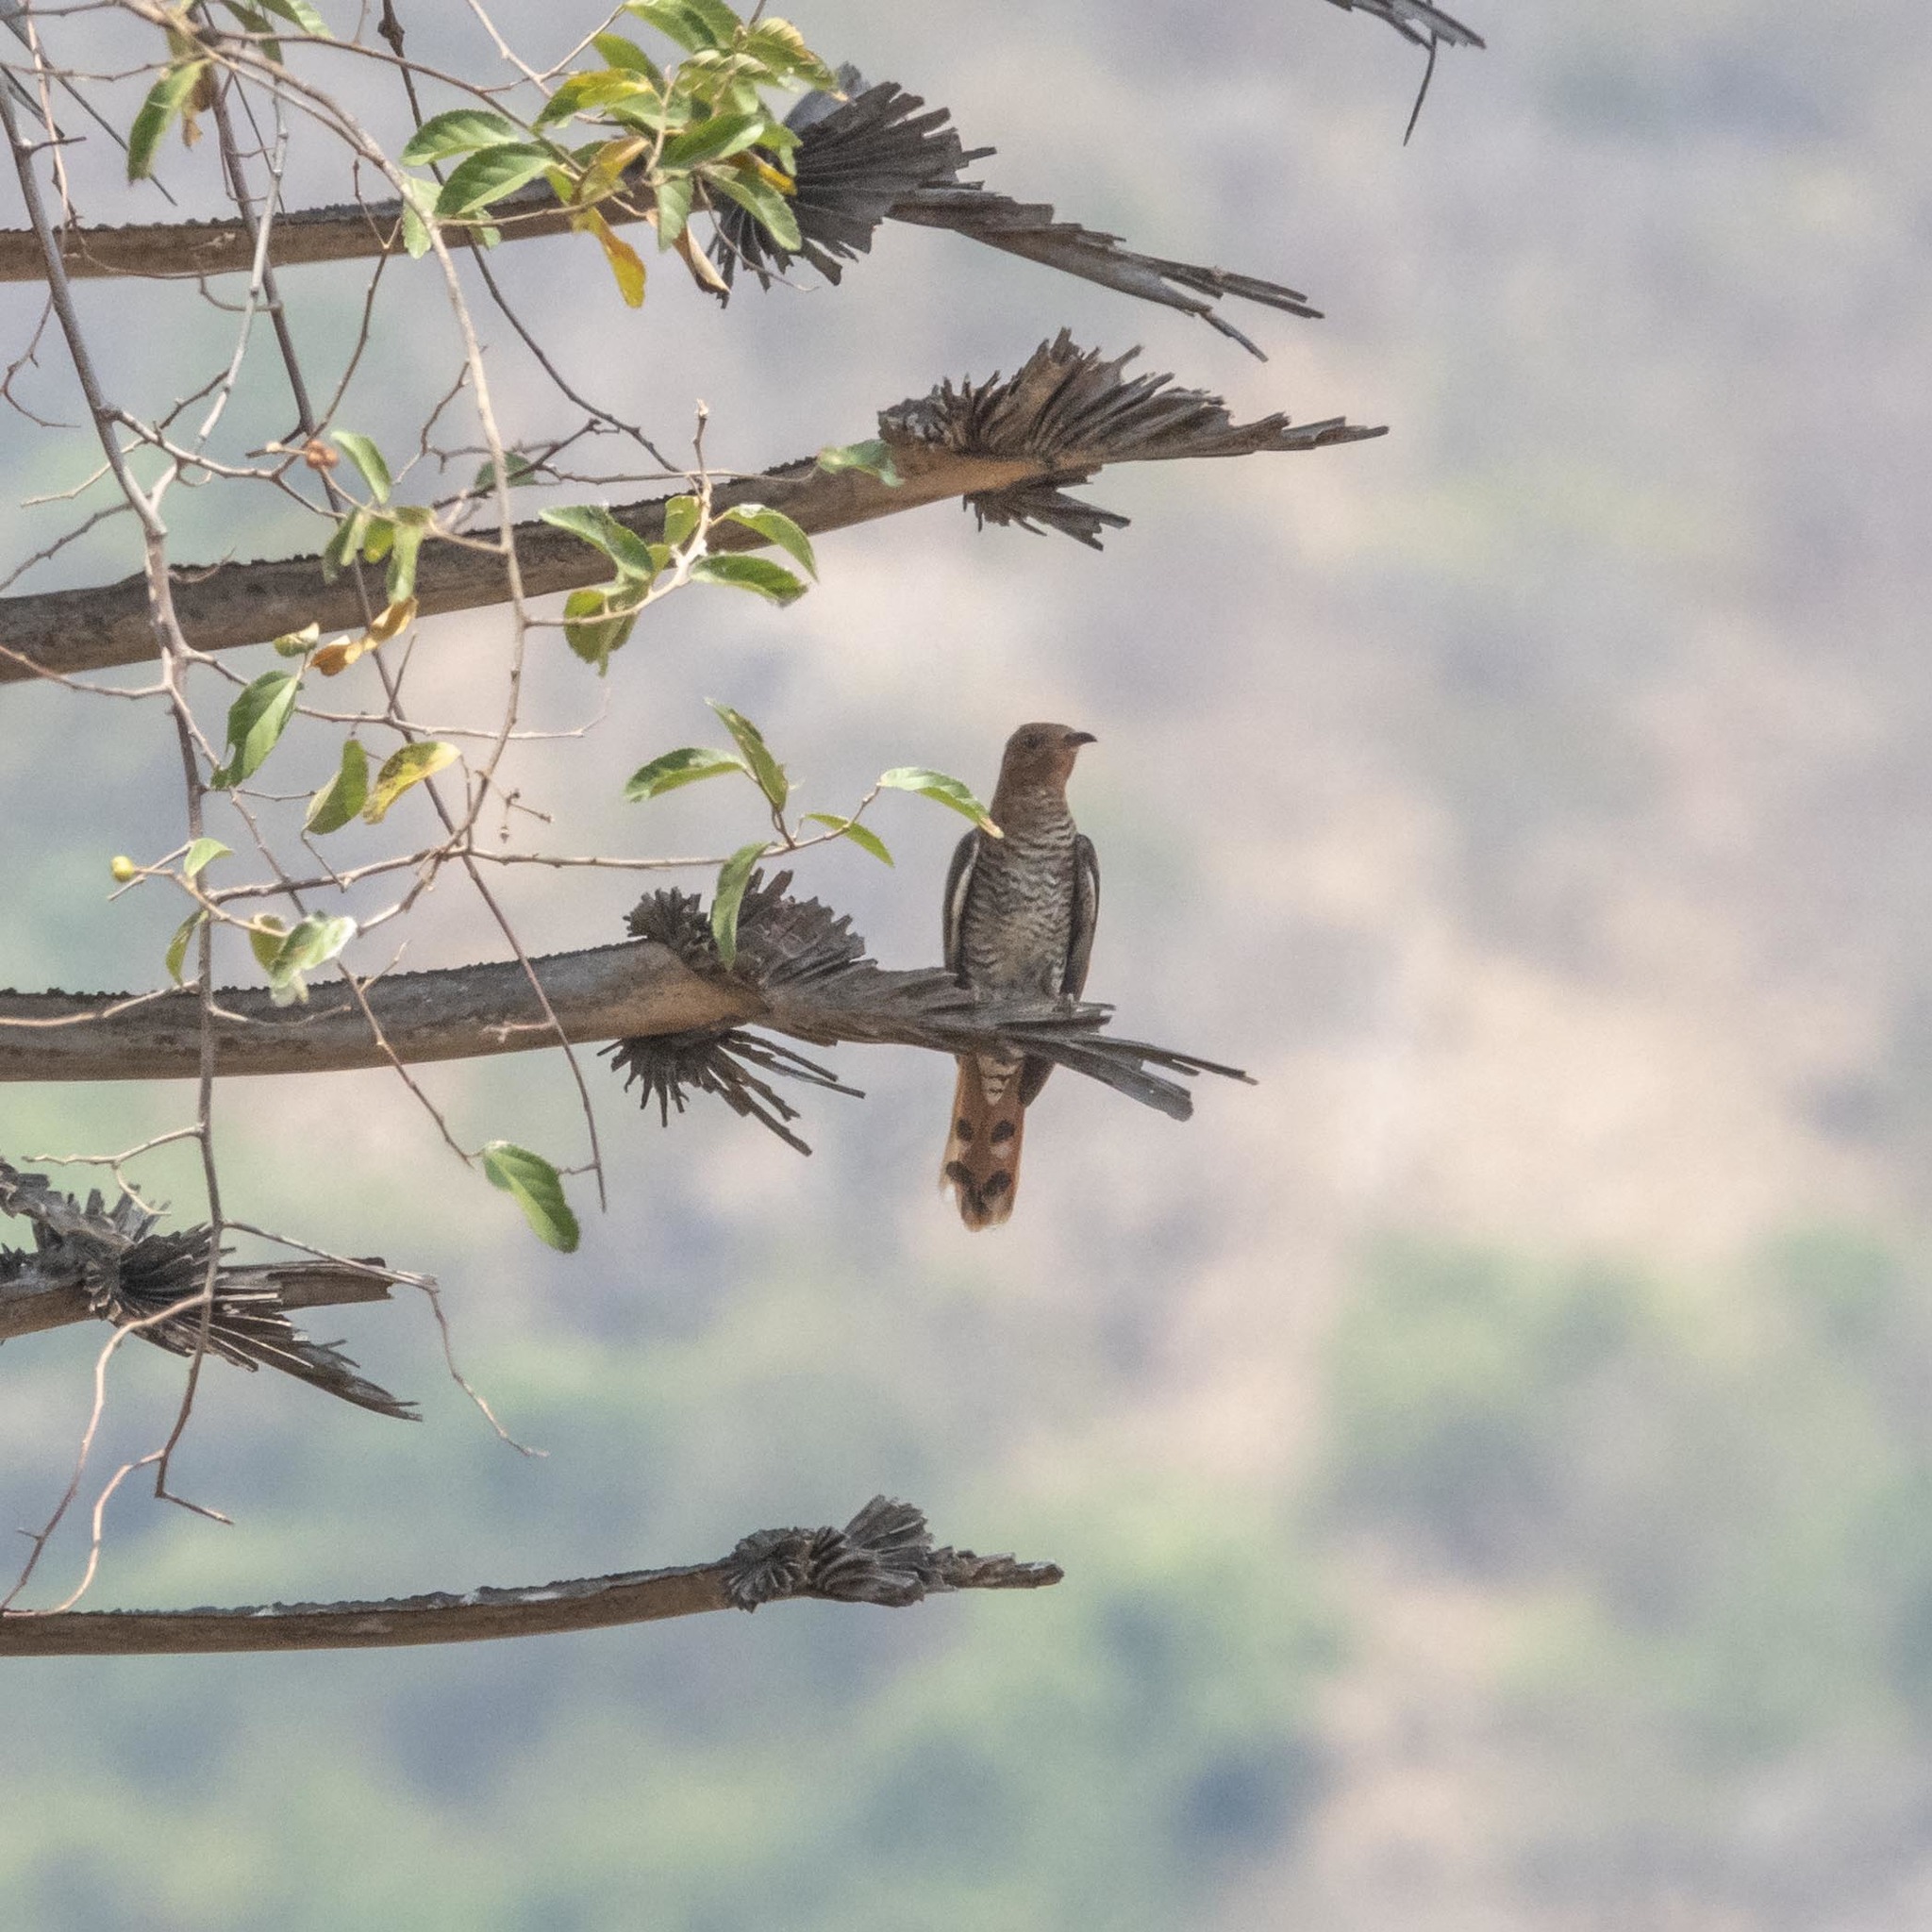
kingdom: Animalia
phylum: Chordata
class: Aves
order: Cuculiformes
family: Cuculidae
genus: Cacomantis
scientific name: Cacomantis passerinus
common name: Grey-bellied cuckoo
